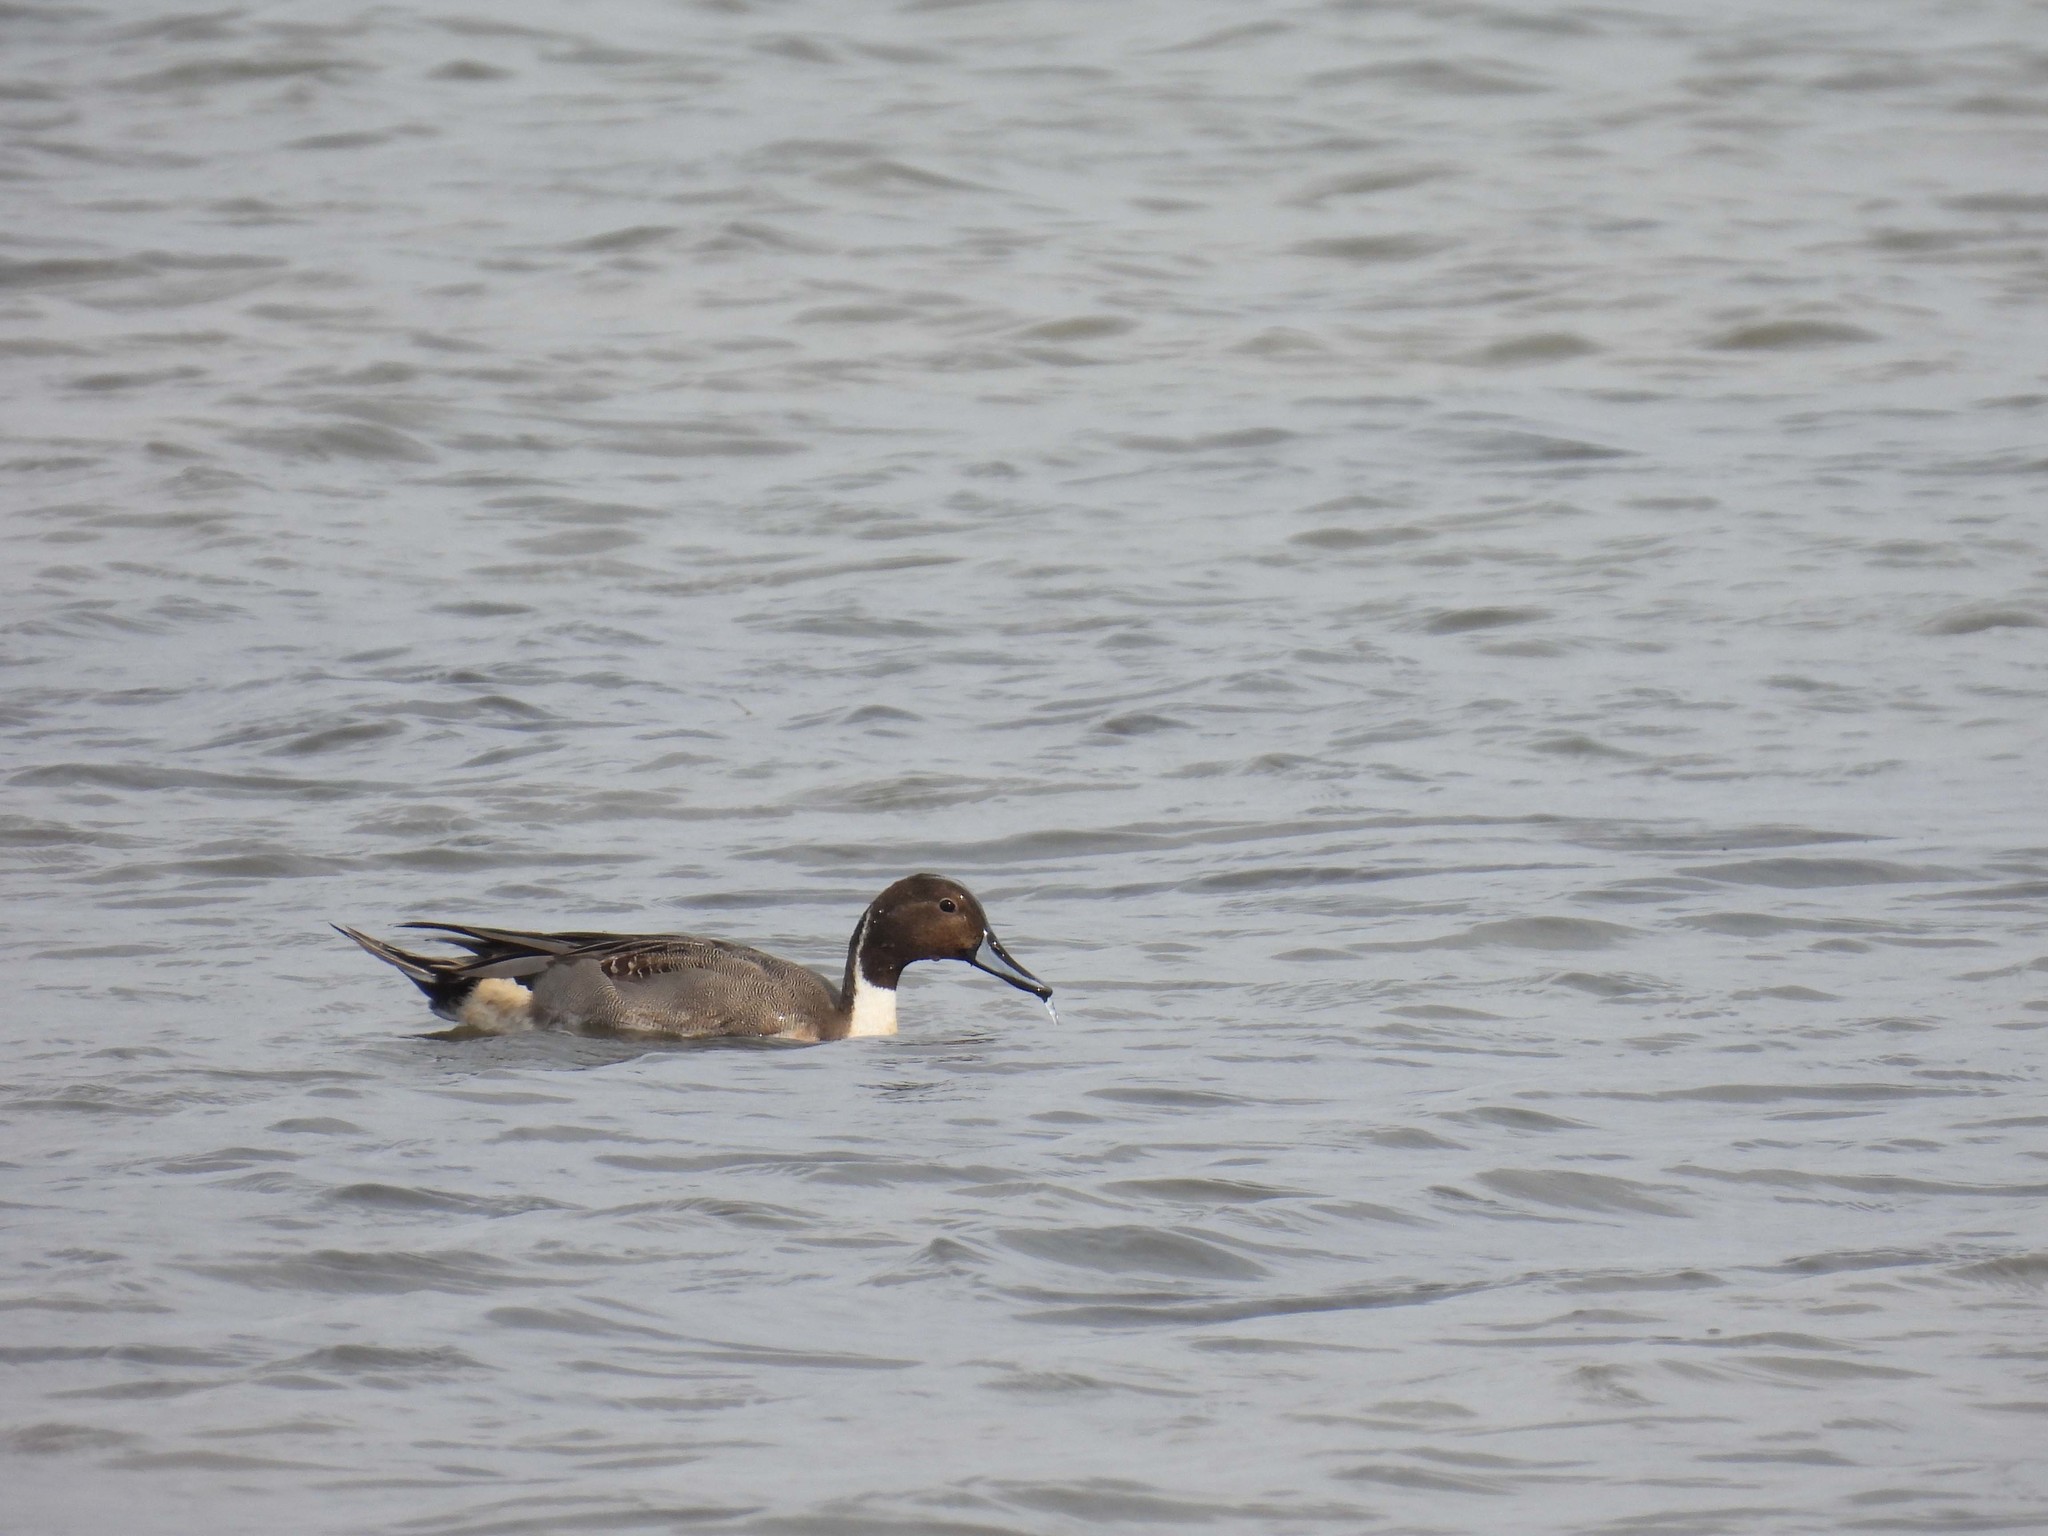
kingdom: Animalia
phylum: Chordata
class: Aves
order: Anseriformes
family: Anatidae
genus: Anas
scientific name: Anas acuta
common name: Northern pintail
